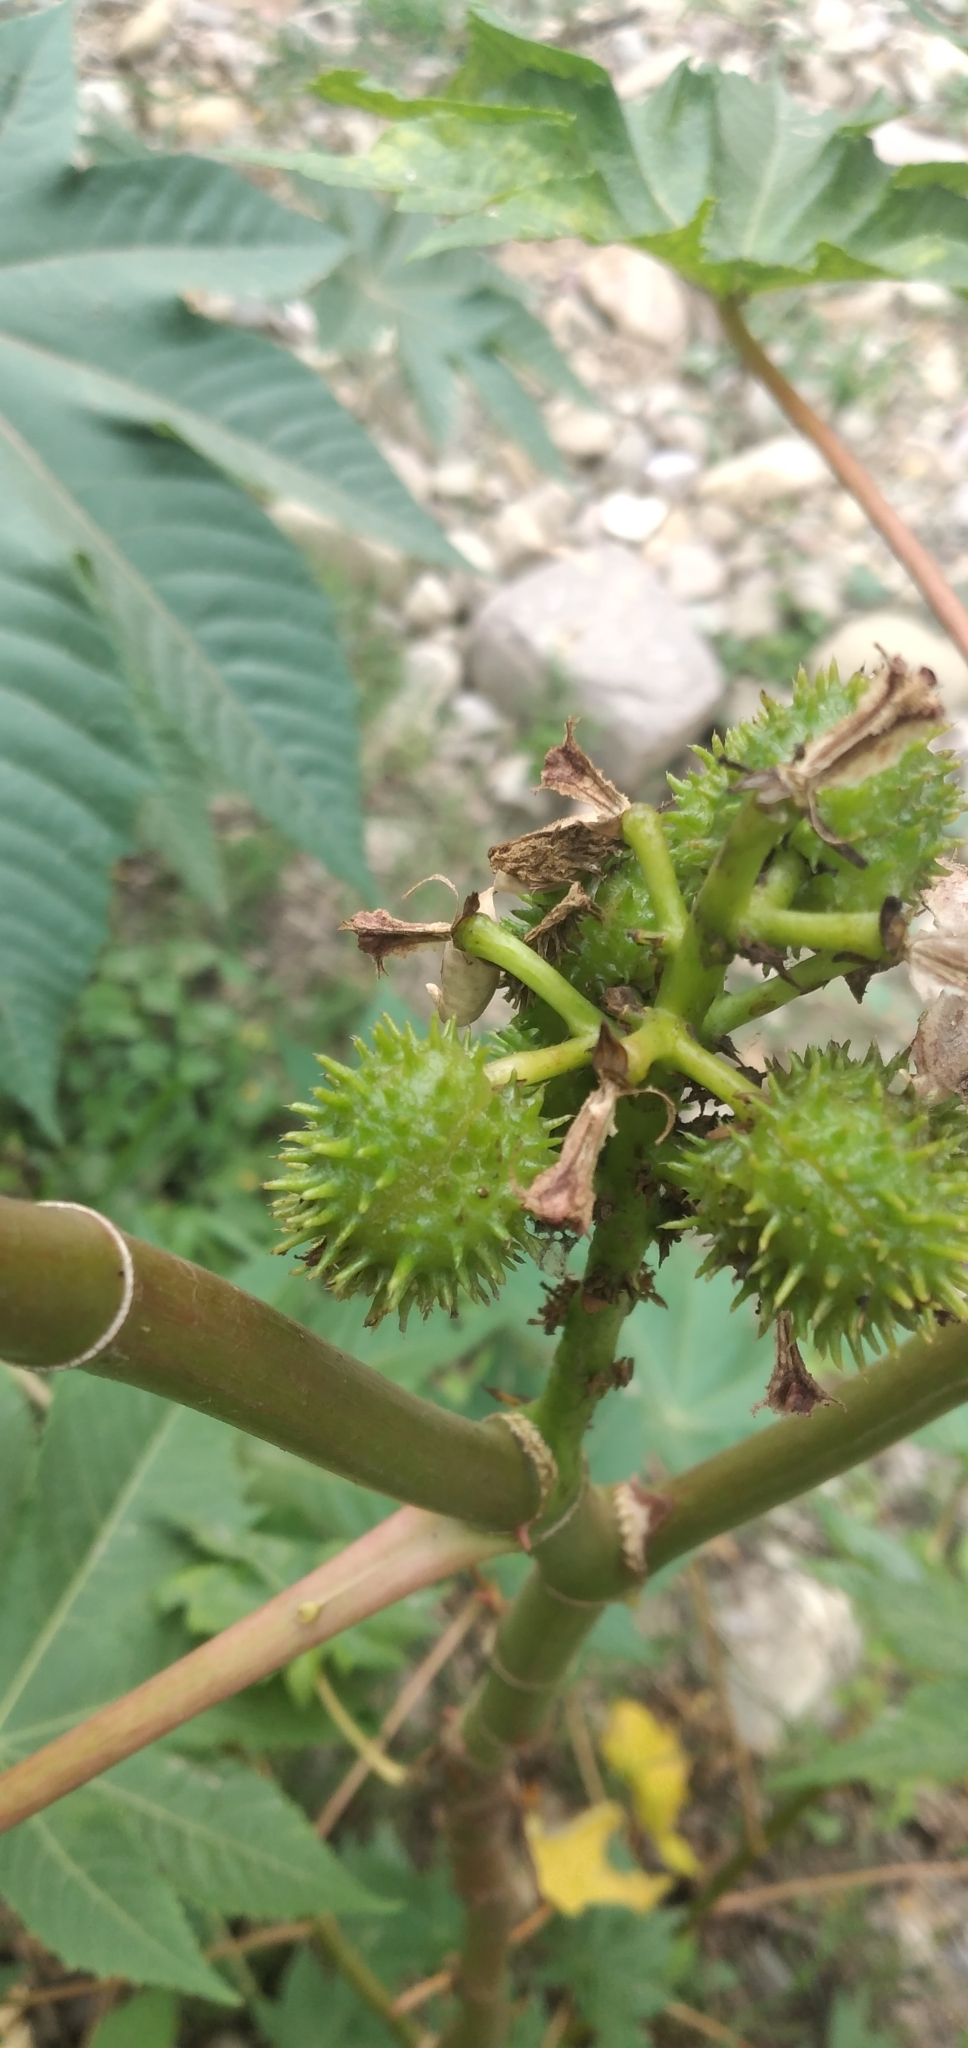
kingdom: Plantae
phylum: Tracheophyta
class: Magnoliopsida
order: Malpighiales
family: Euphorbiaceae
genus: Ricinus
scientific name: Ricinus communis
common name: Castor-oil-plant
